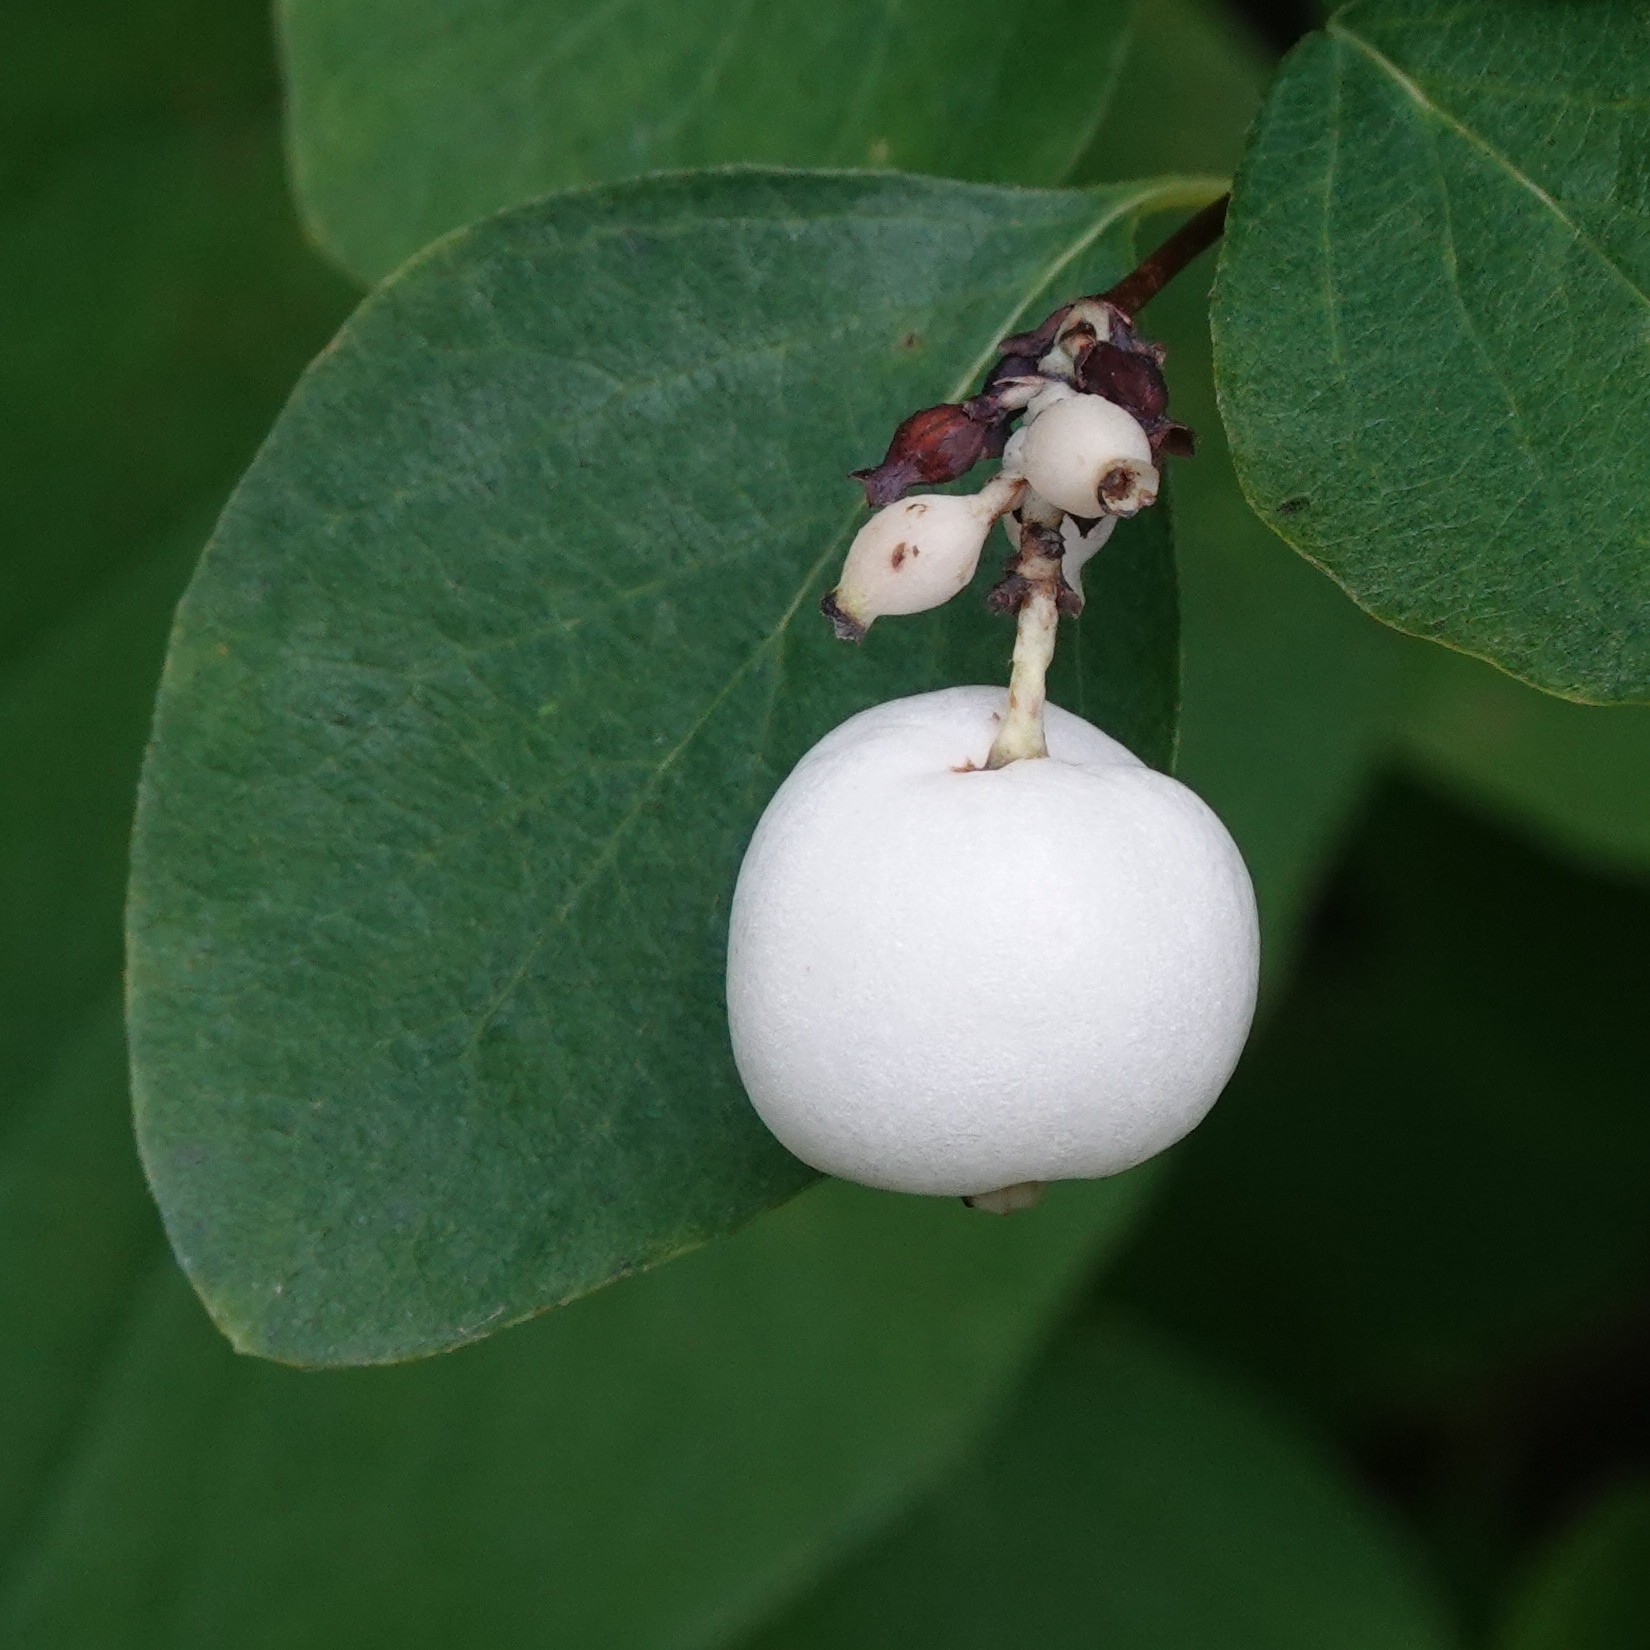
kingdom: Plantae
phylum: Tracheophyta
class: Magnoliopsida
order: Dipsacales
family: Caprifoliaceae
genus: Symphoricarpos
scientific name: Symphoricarpos albus
